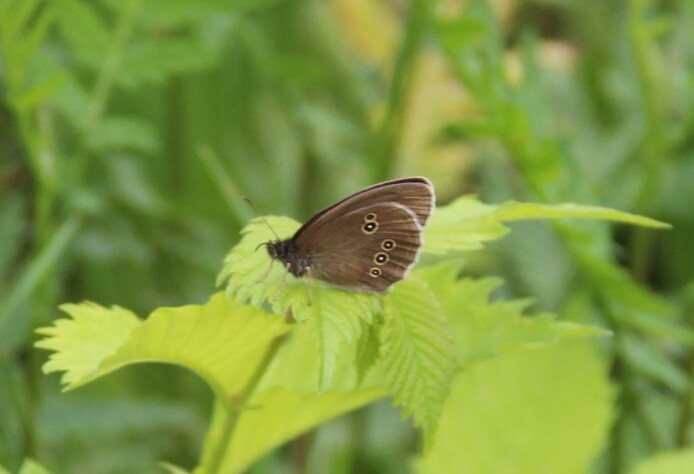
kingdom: Animalia
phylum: Arthropoda
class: Insecta
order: Lepidoptera
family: Nymphalidae
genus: Aphantopus
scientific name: Aphantopus hyperantus
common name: Ringlet
